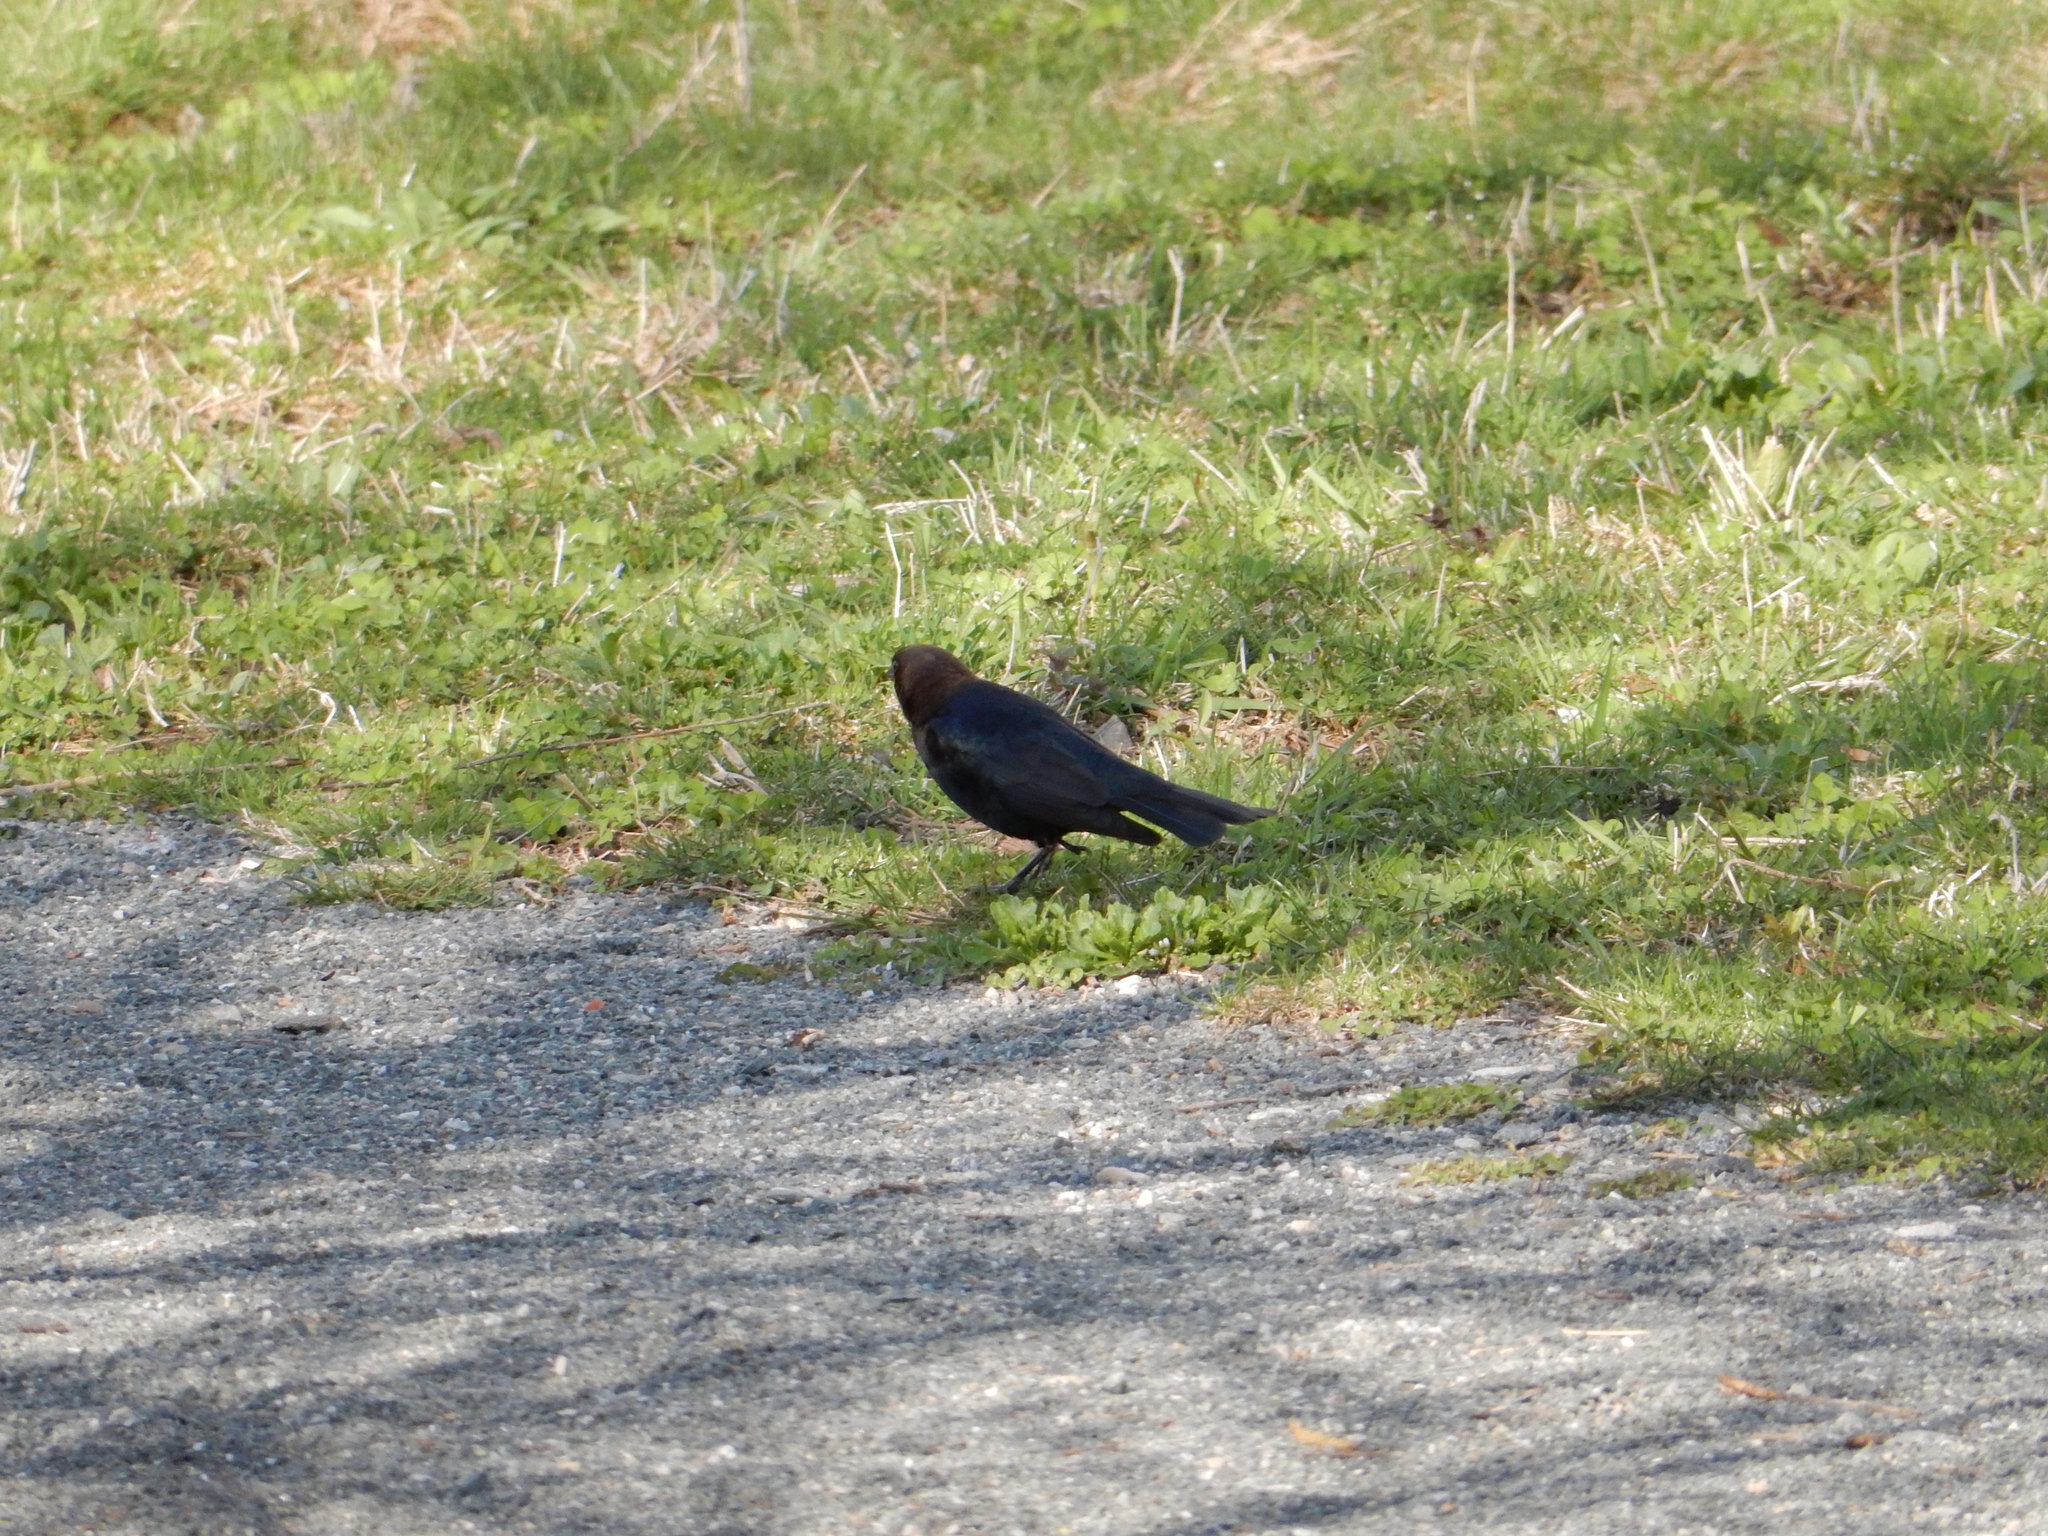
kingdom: Animalia
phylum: Chordata
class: Aves
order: Passeriformes
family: Icteridae
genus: Molothrus
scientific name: Molothrus ater
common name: Brown-headed cowbird
